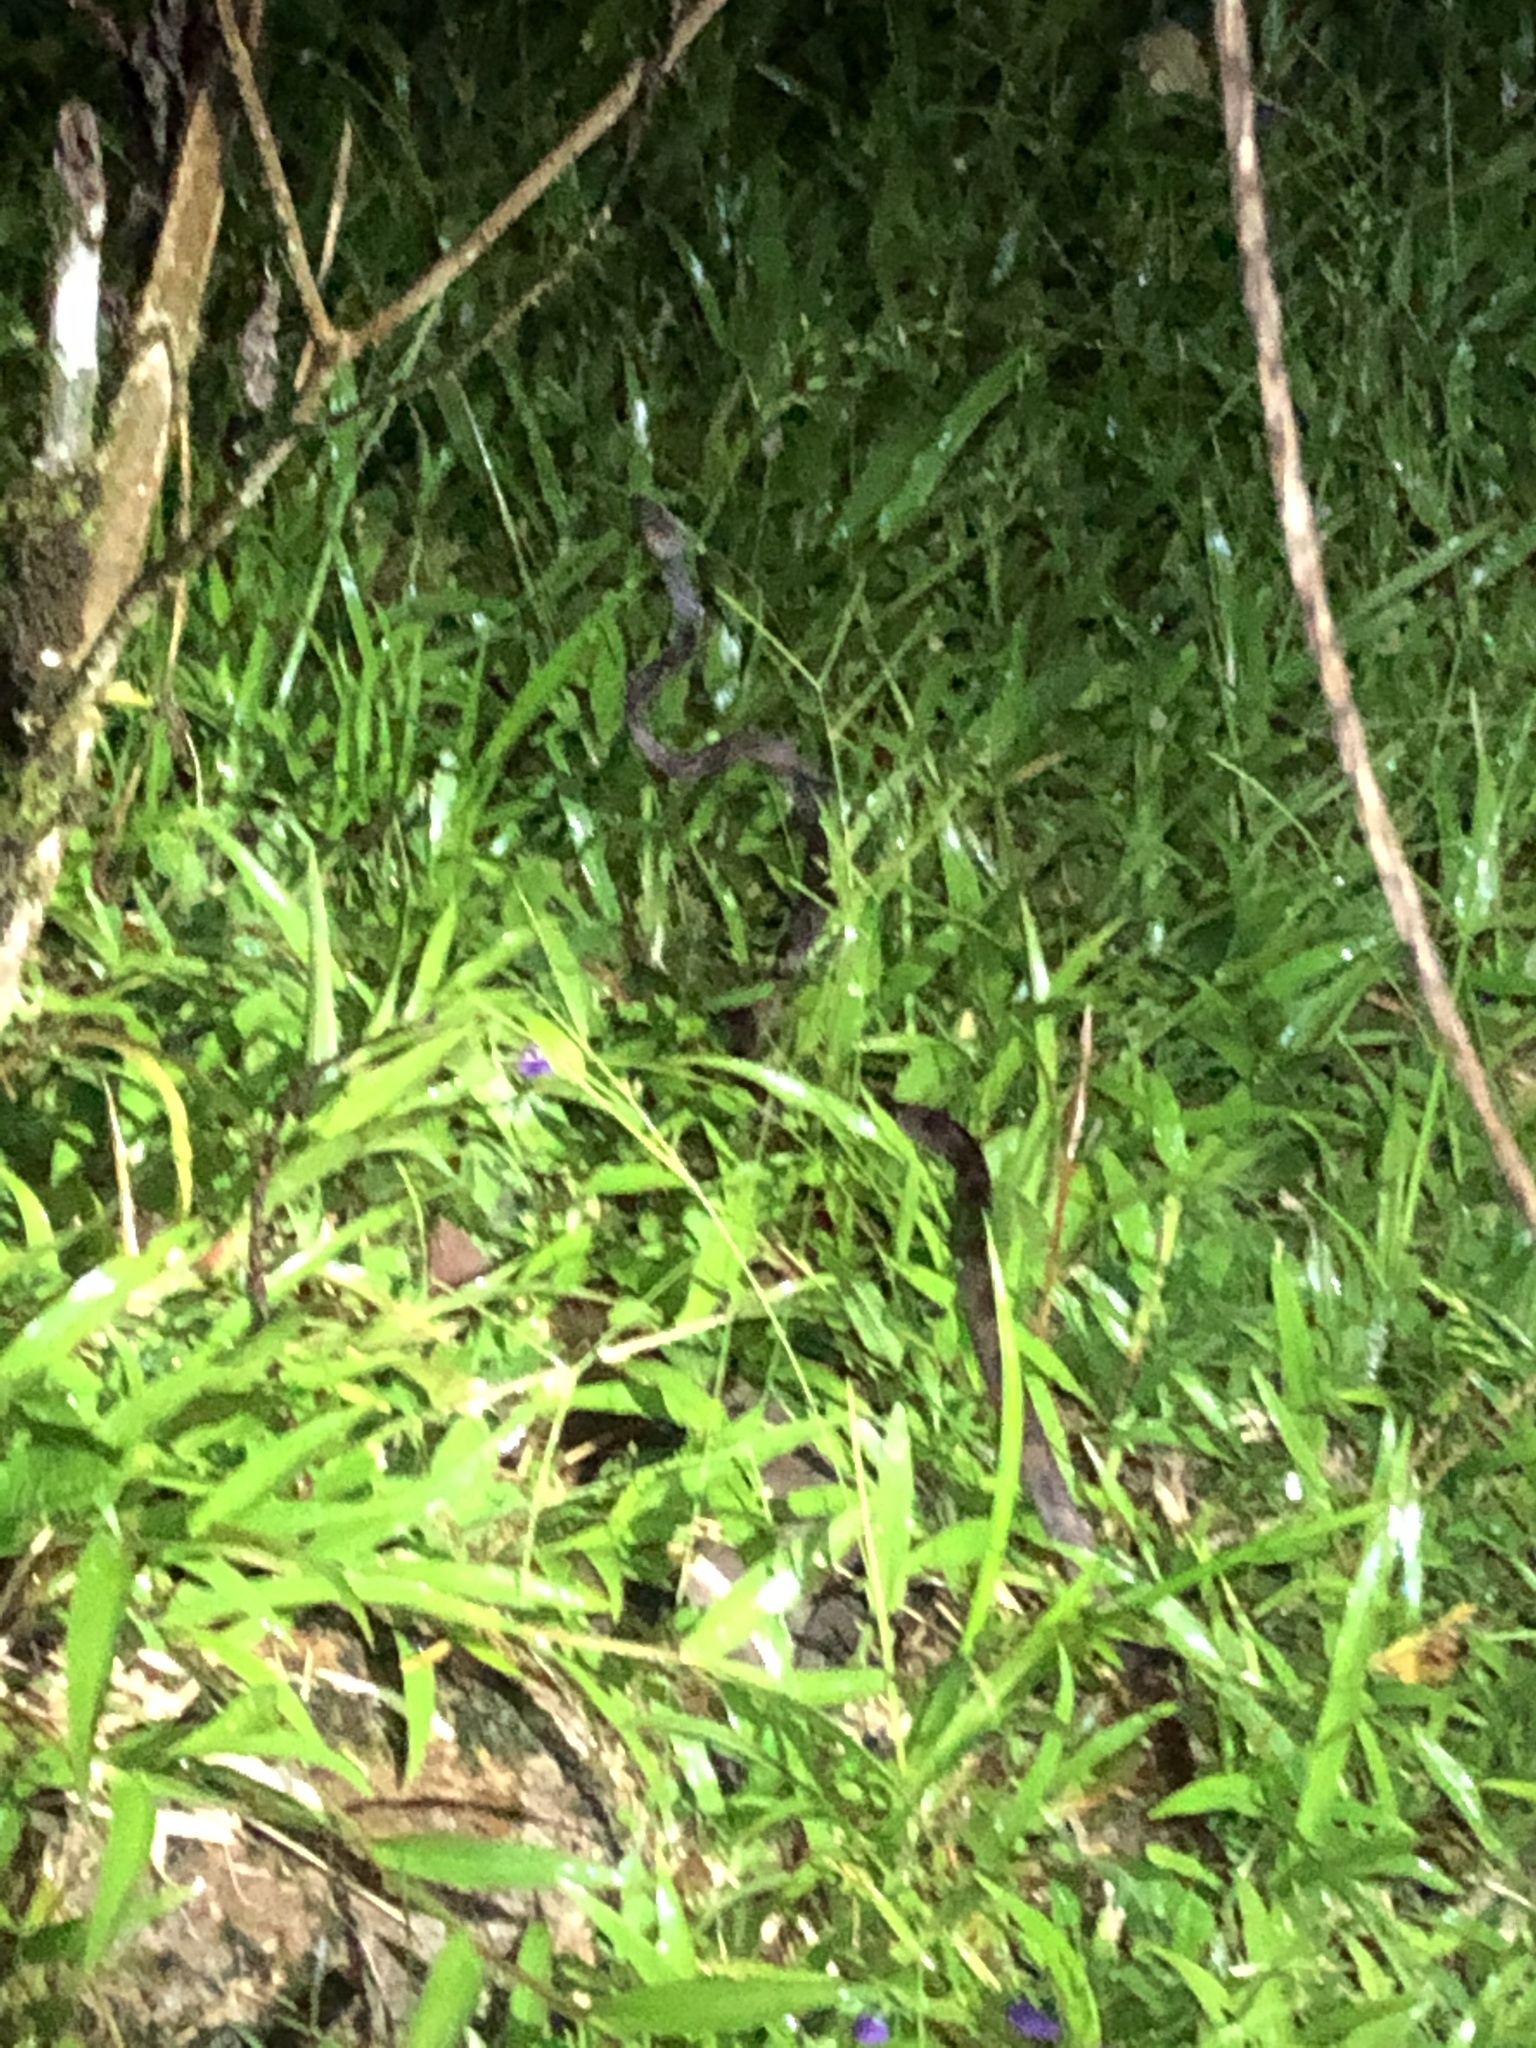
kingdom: Animalia
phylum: Chordata
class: Squamata
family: Colubridae
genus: Leptodeira
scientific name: Leptodeira annulata
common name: Banded cat-eyed snake
